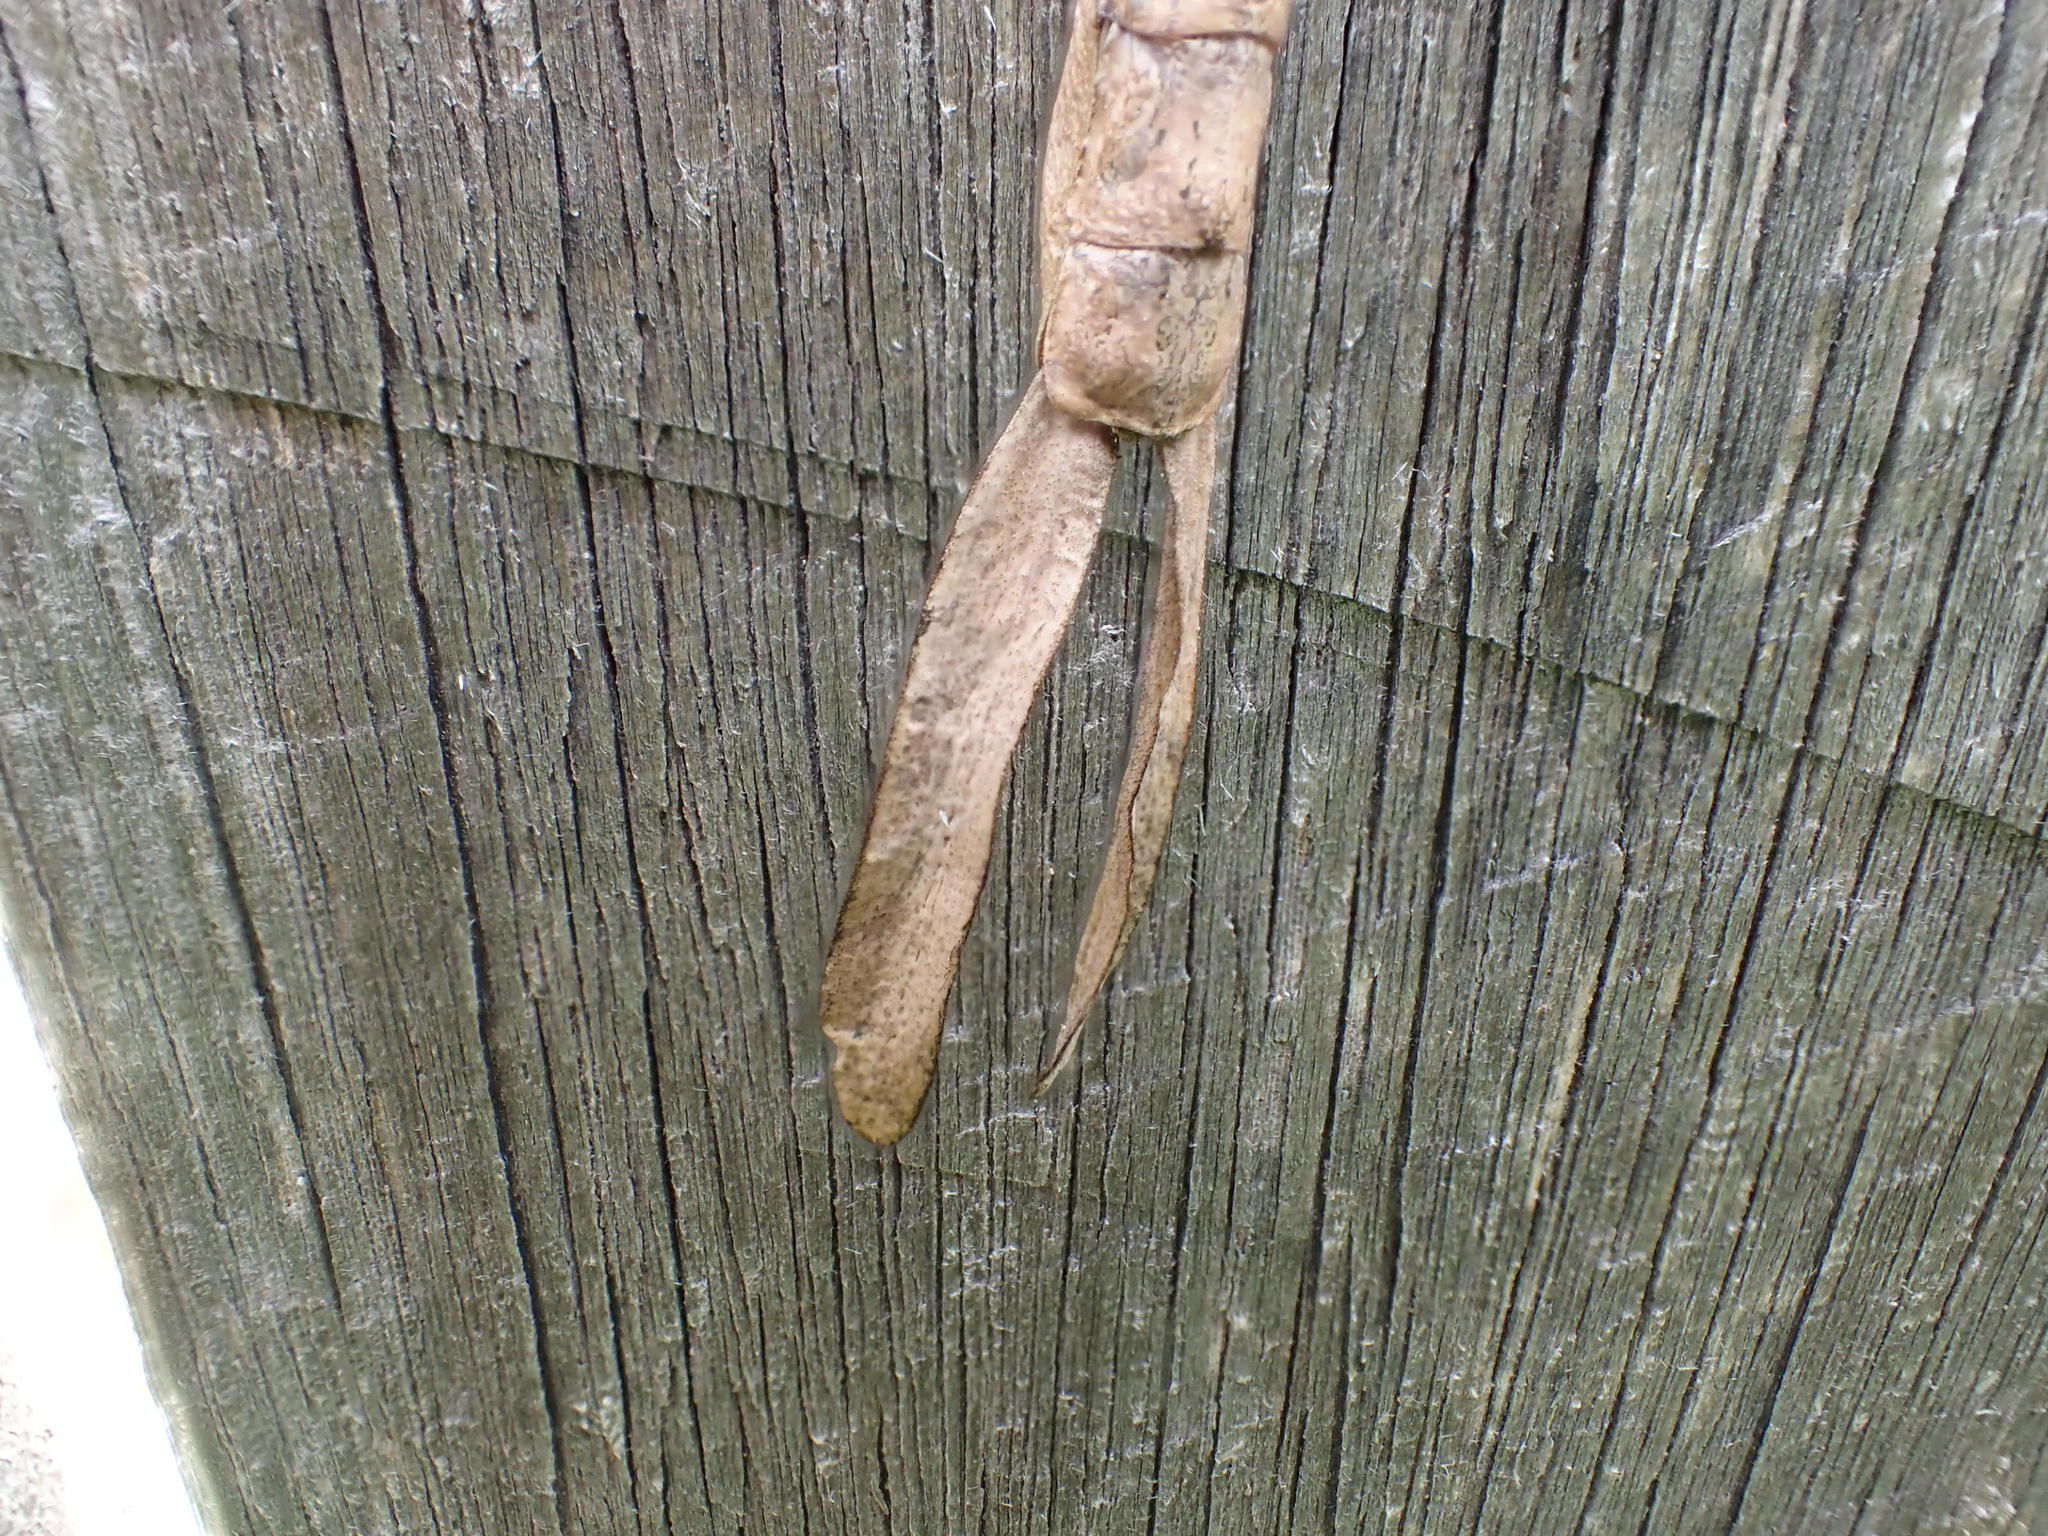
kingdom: Animalia
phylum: Arthropoda
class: Insecta
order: Phasmida
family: Phasmatidae
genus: Ctenomorpha
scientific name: Ctenomorpha marginipennis
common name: Margined-winged stick-insect
